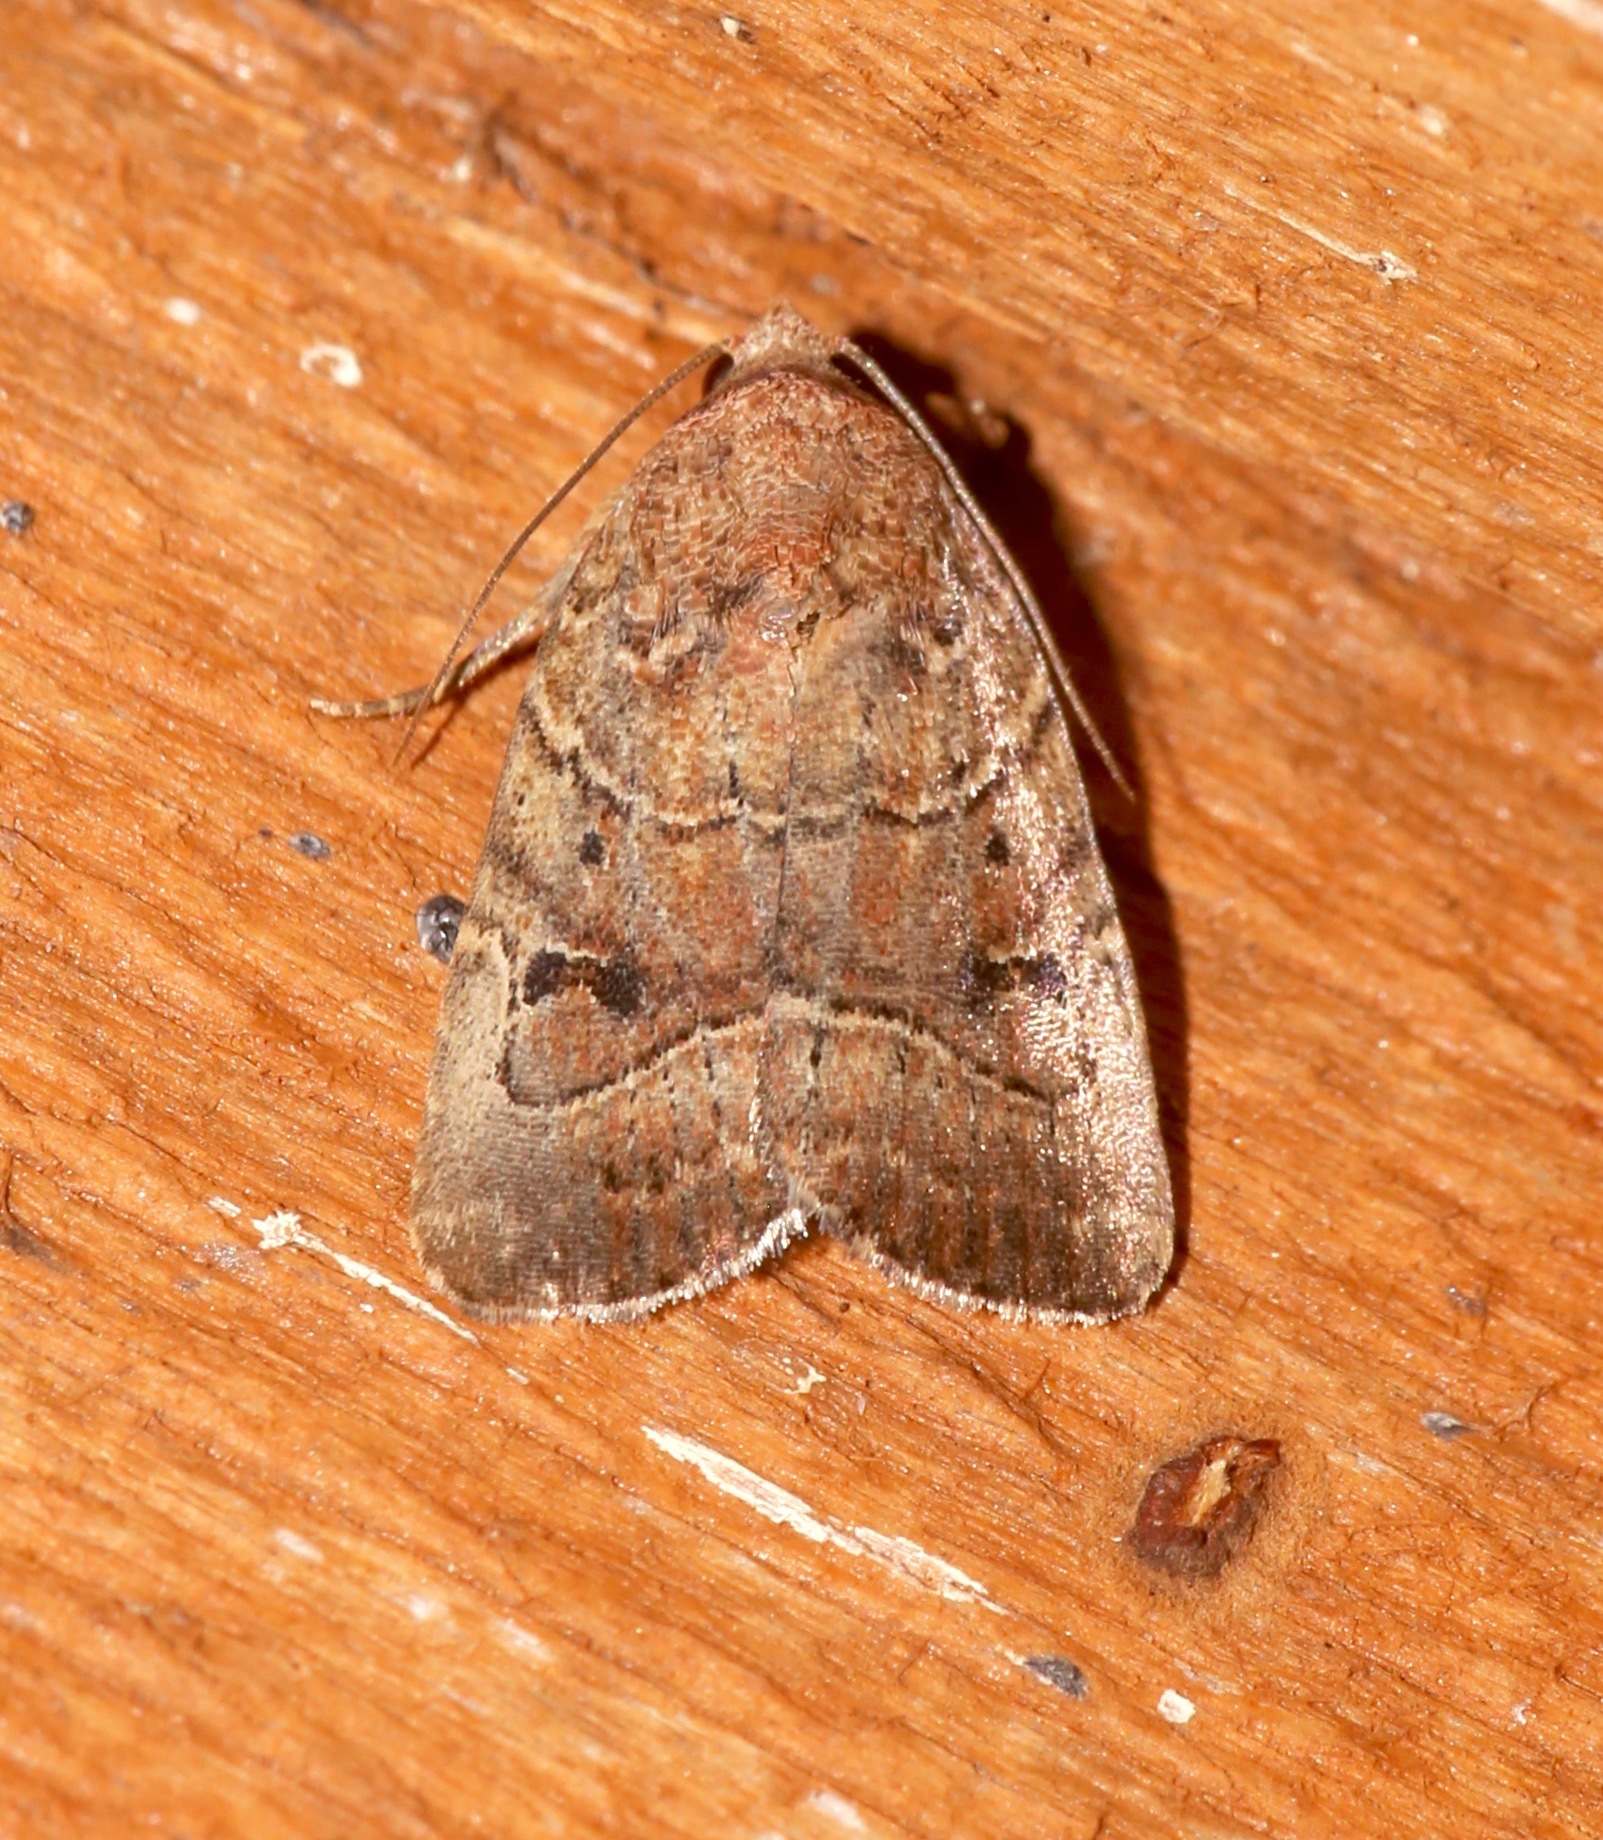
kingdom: Animalia
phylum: Arthropoda
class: Insecta
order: Lepidoptera
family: Noctuidae
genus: Elaphria
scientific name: Elaphria fuscimacula
